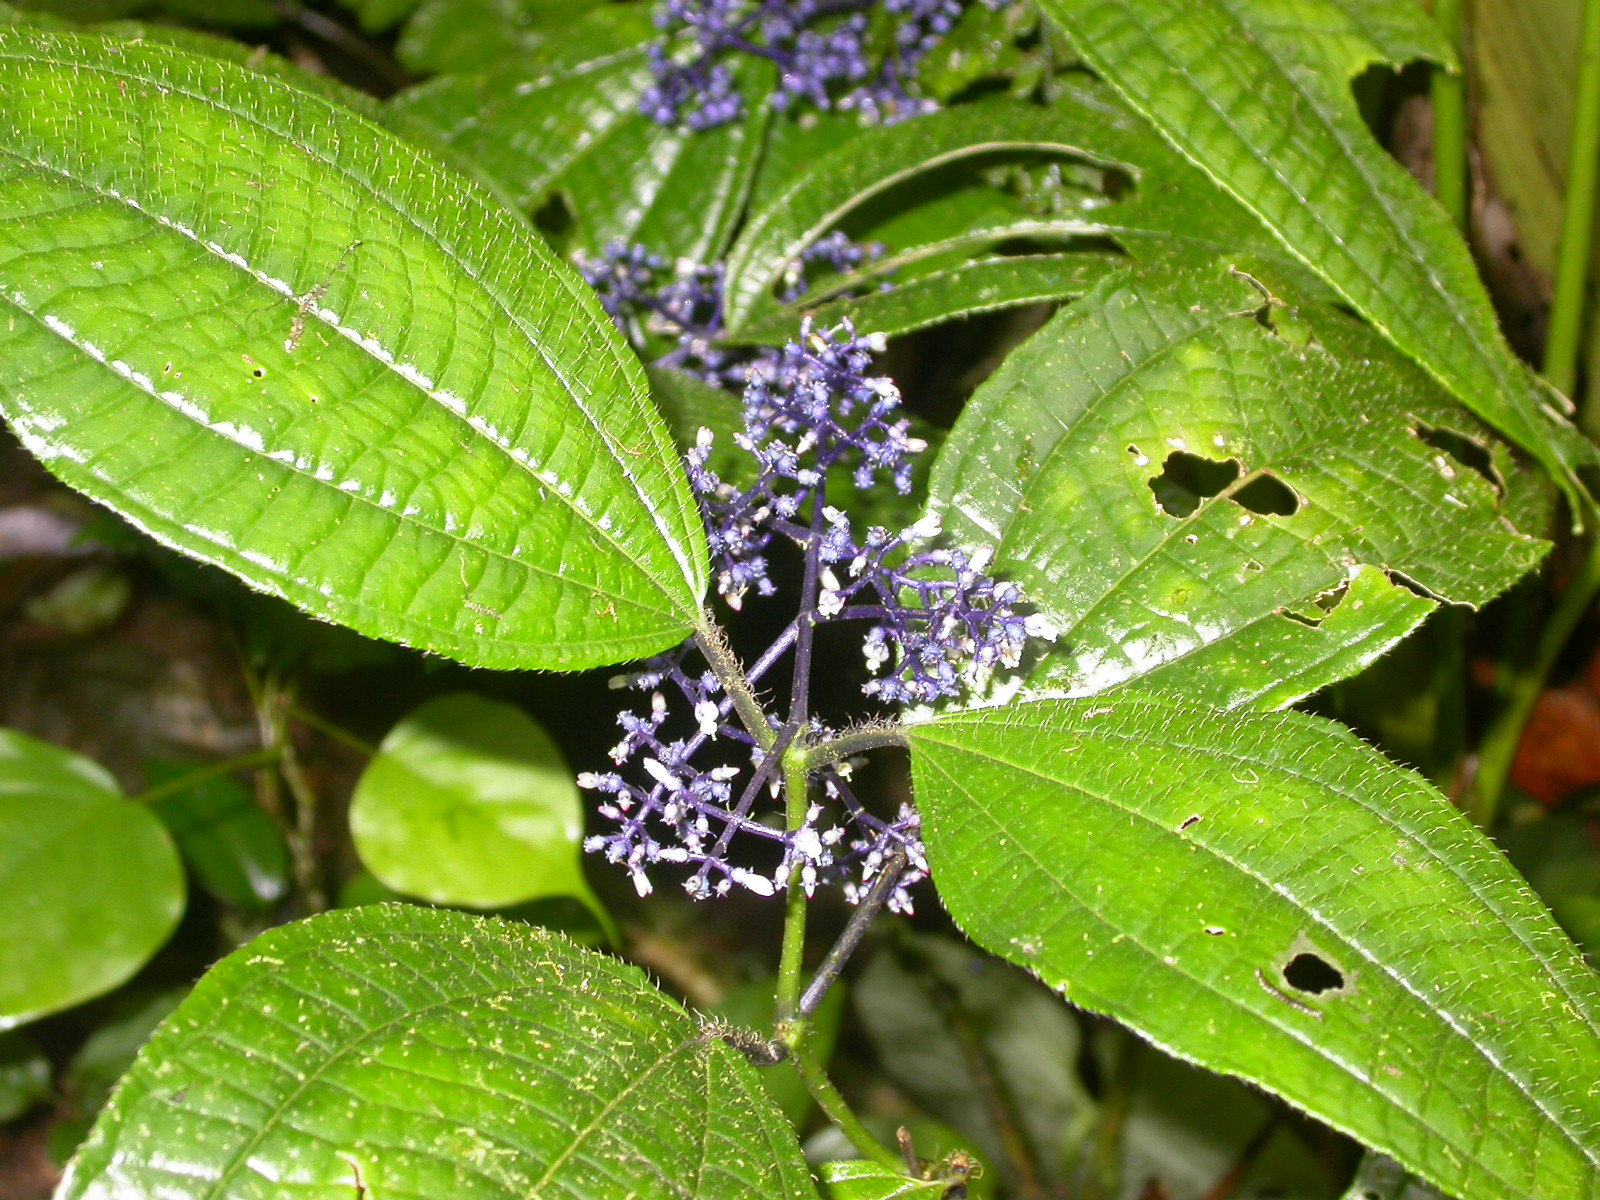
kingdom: Plantae
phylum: Tracheophyta
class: Magnoliopsida
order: Myrtales
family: Melastomataceae
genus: Miconia
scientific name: Miconia valeriana
